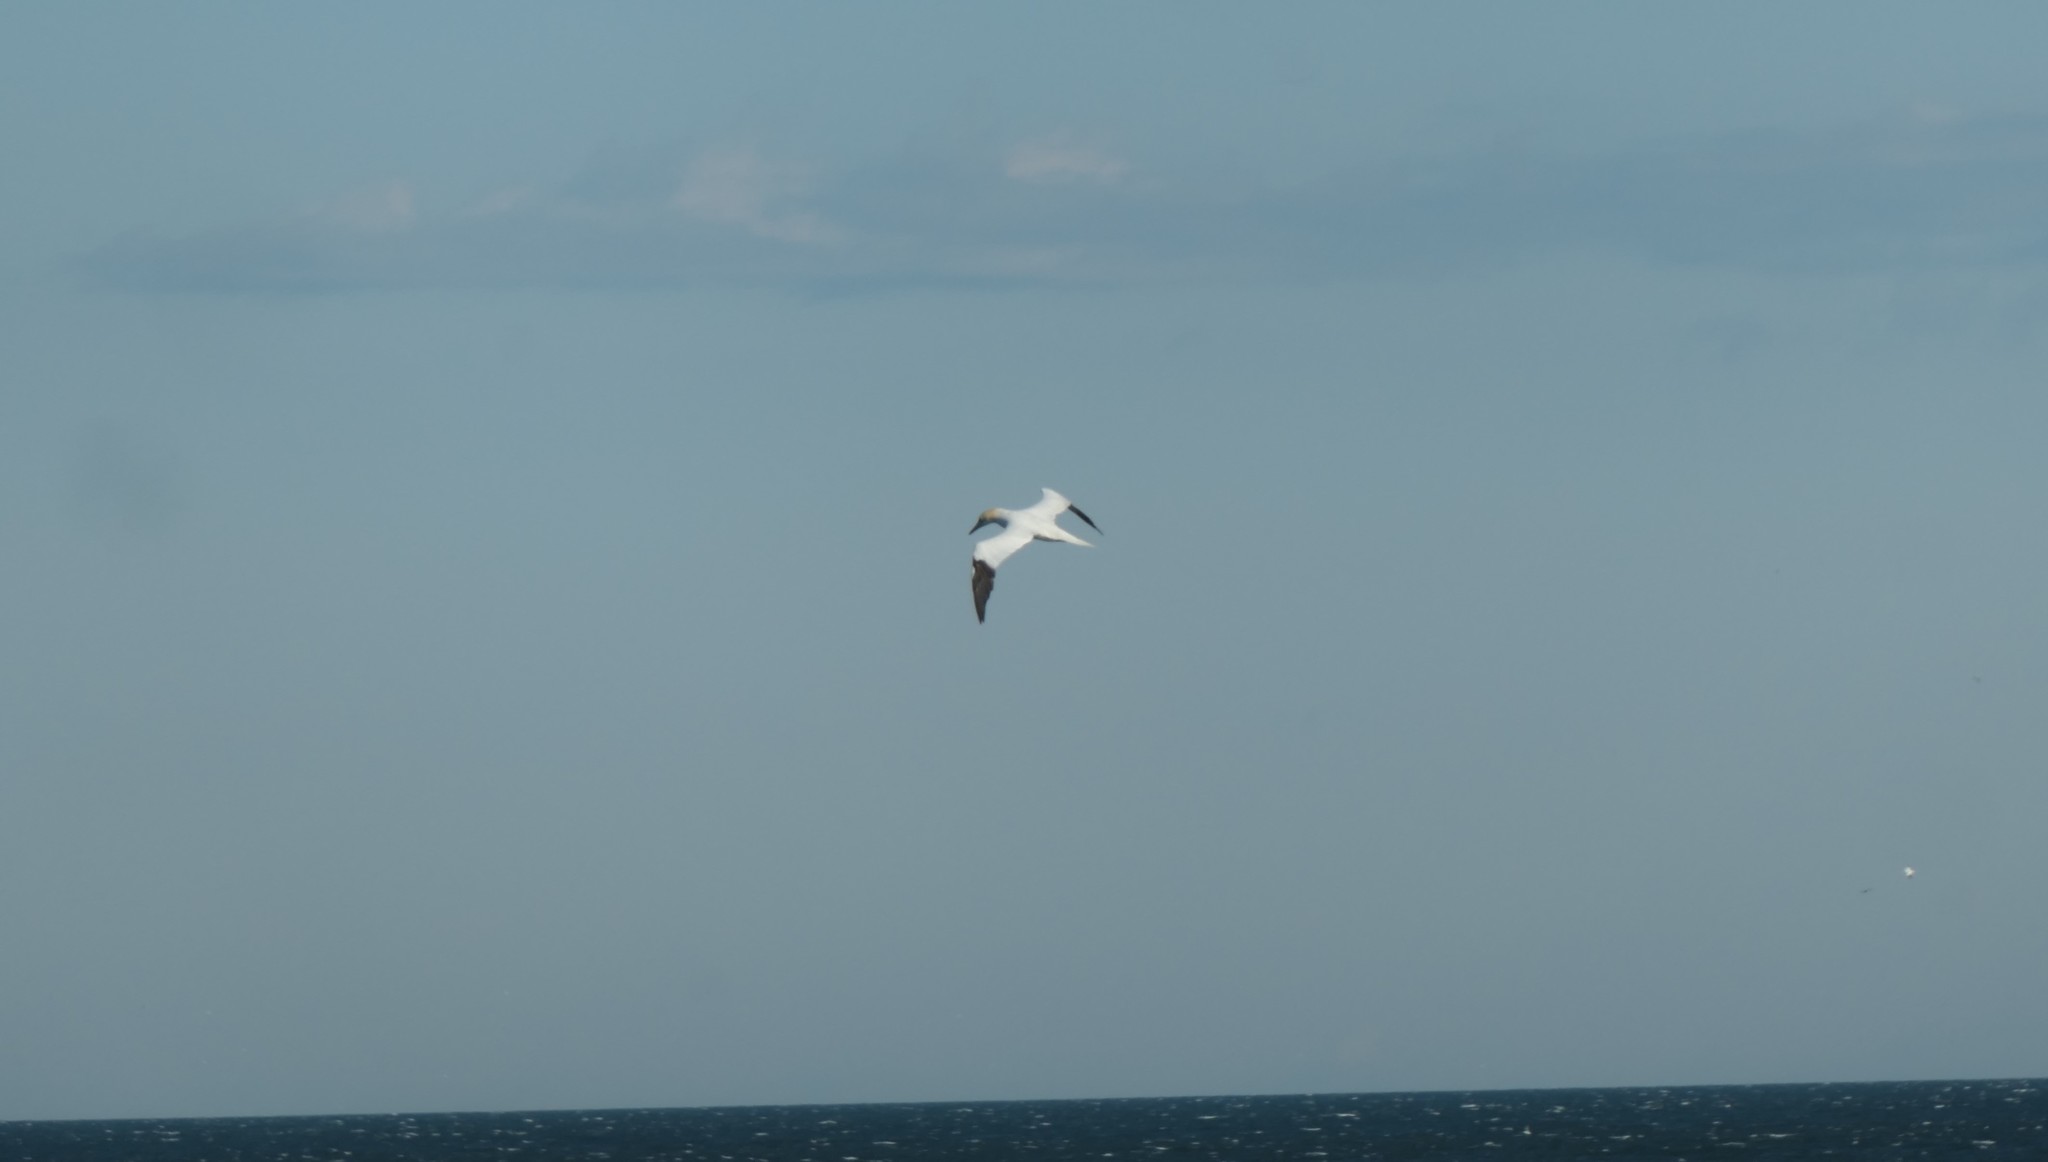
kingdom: Animalia
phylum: Chordata
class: Aves
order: Suliformes
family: Sulidae
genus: Morus
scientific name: Morus bassanus
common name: Northern gannet
